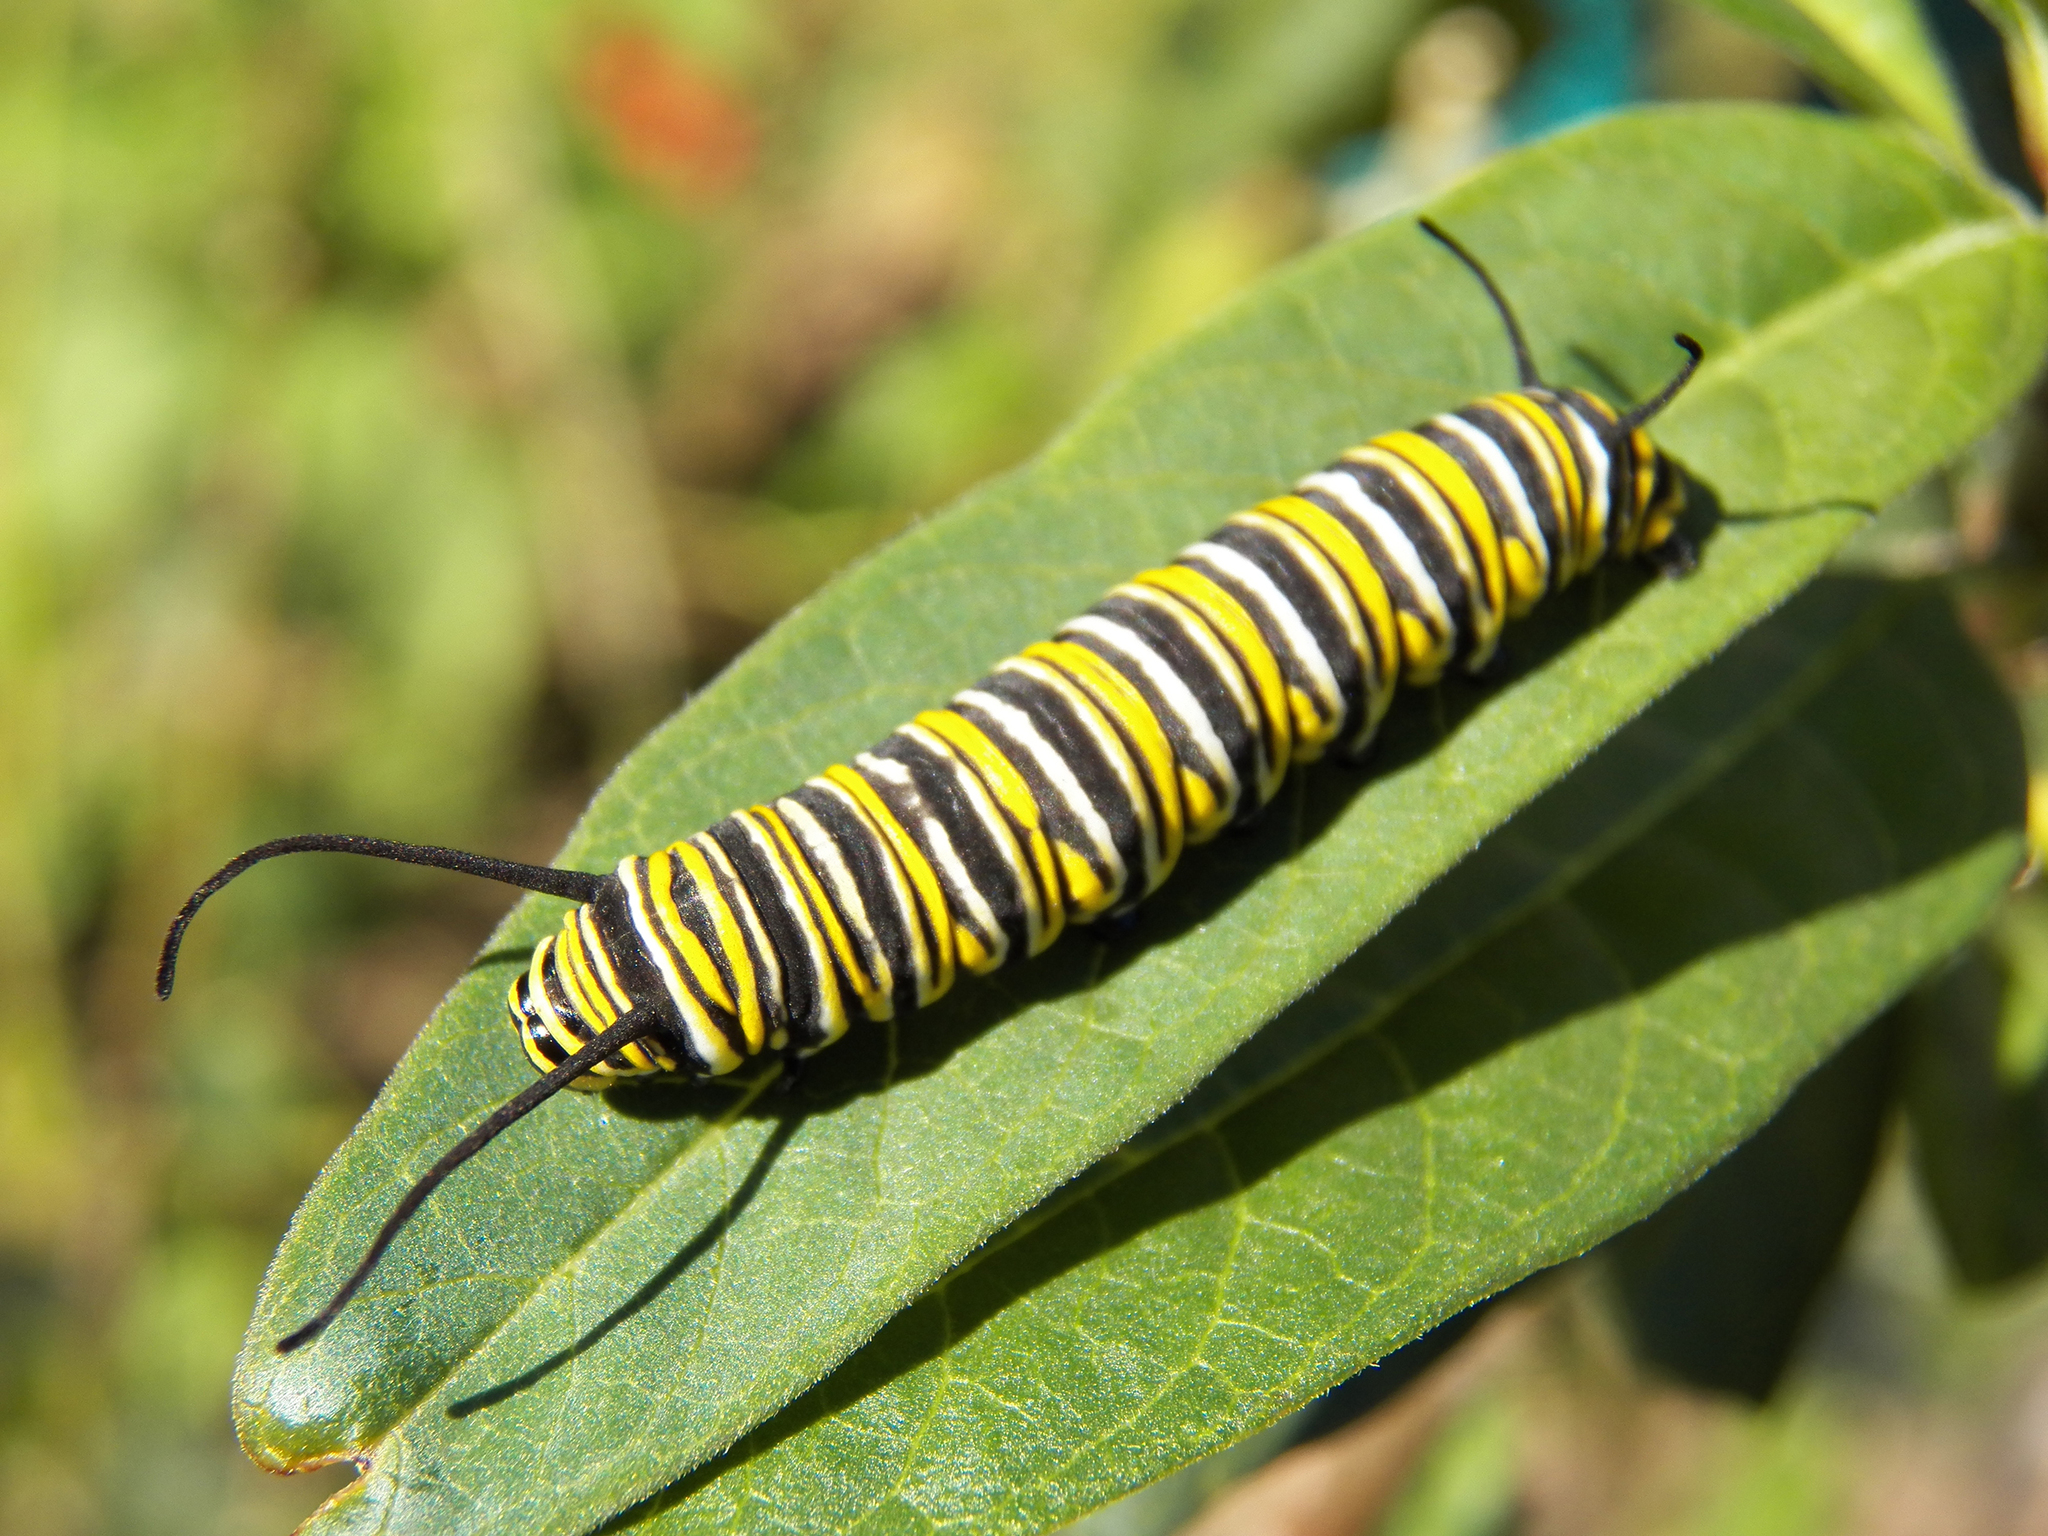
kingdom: Animalia
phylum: Arthropoda
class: Insecta
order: Lepidoptera
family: Nymphalidae
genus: Danaus
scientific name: Danaus plexippus
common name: Monarch
